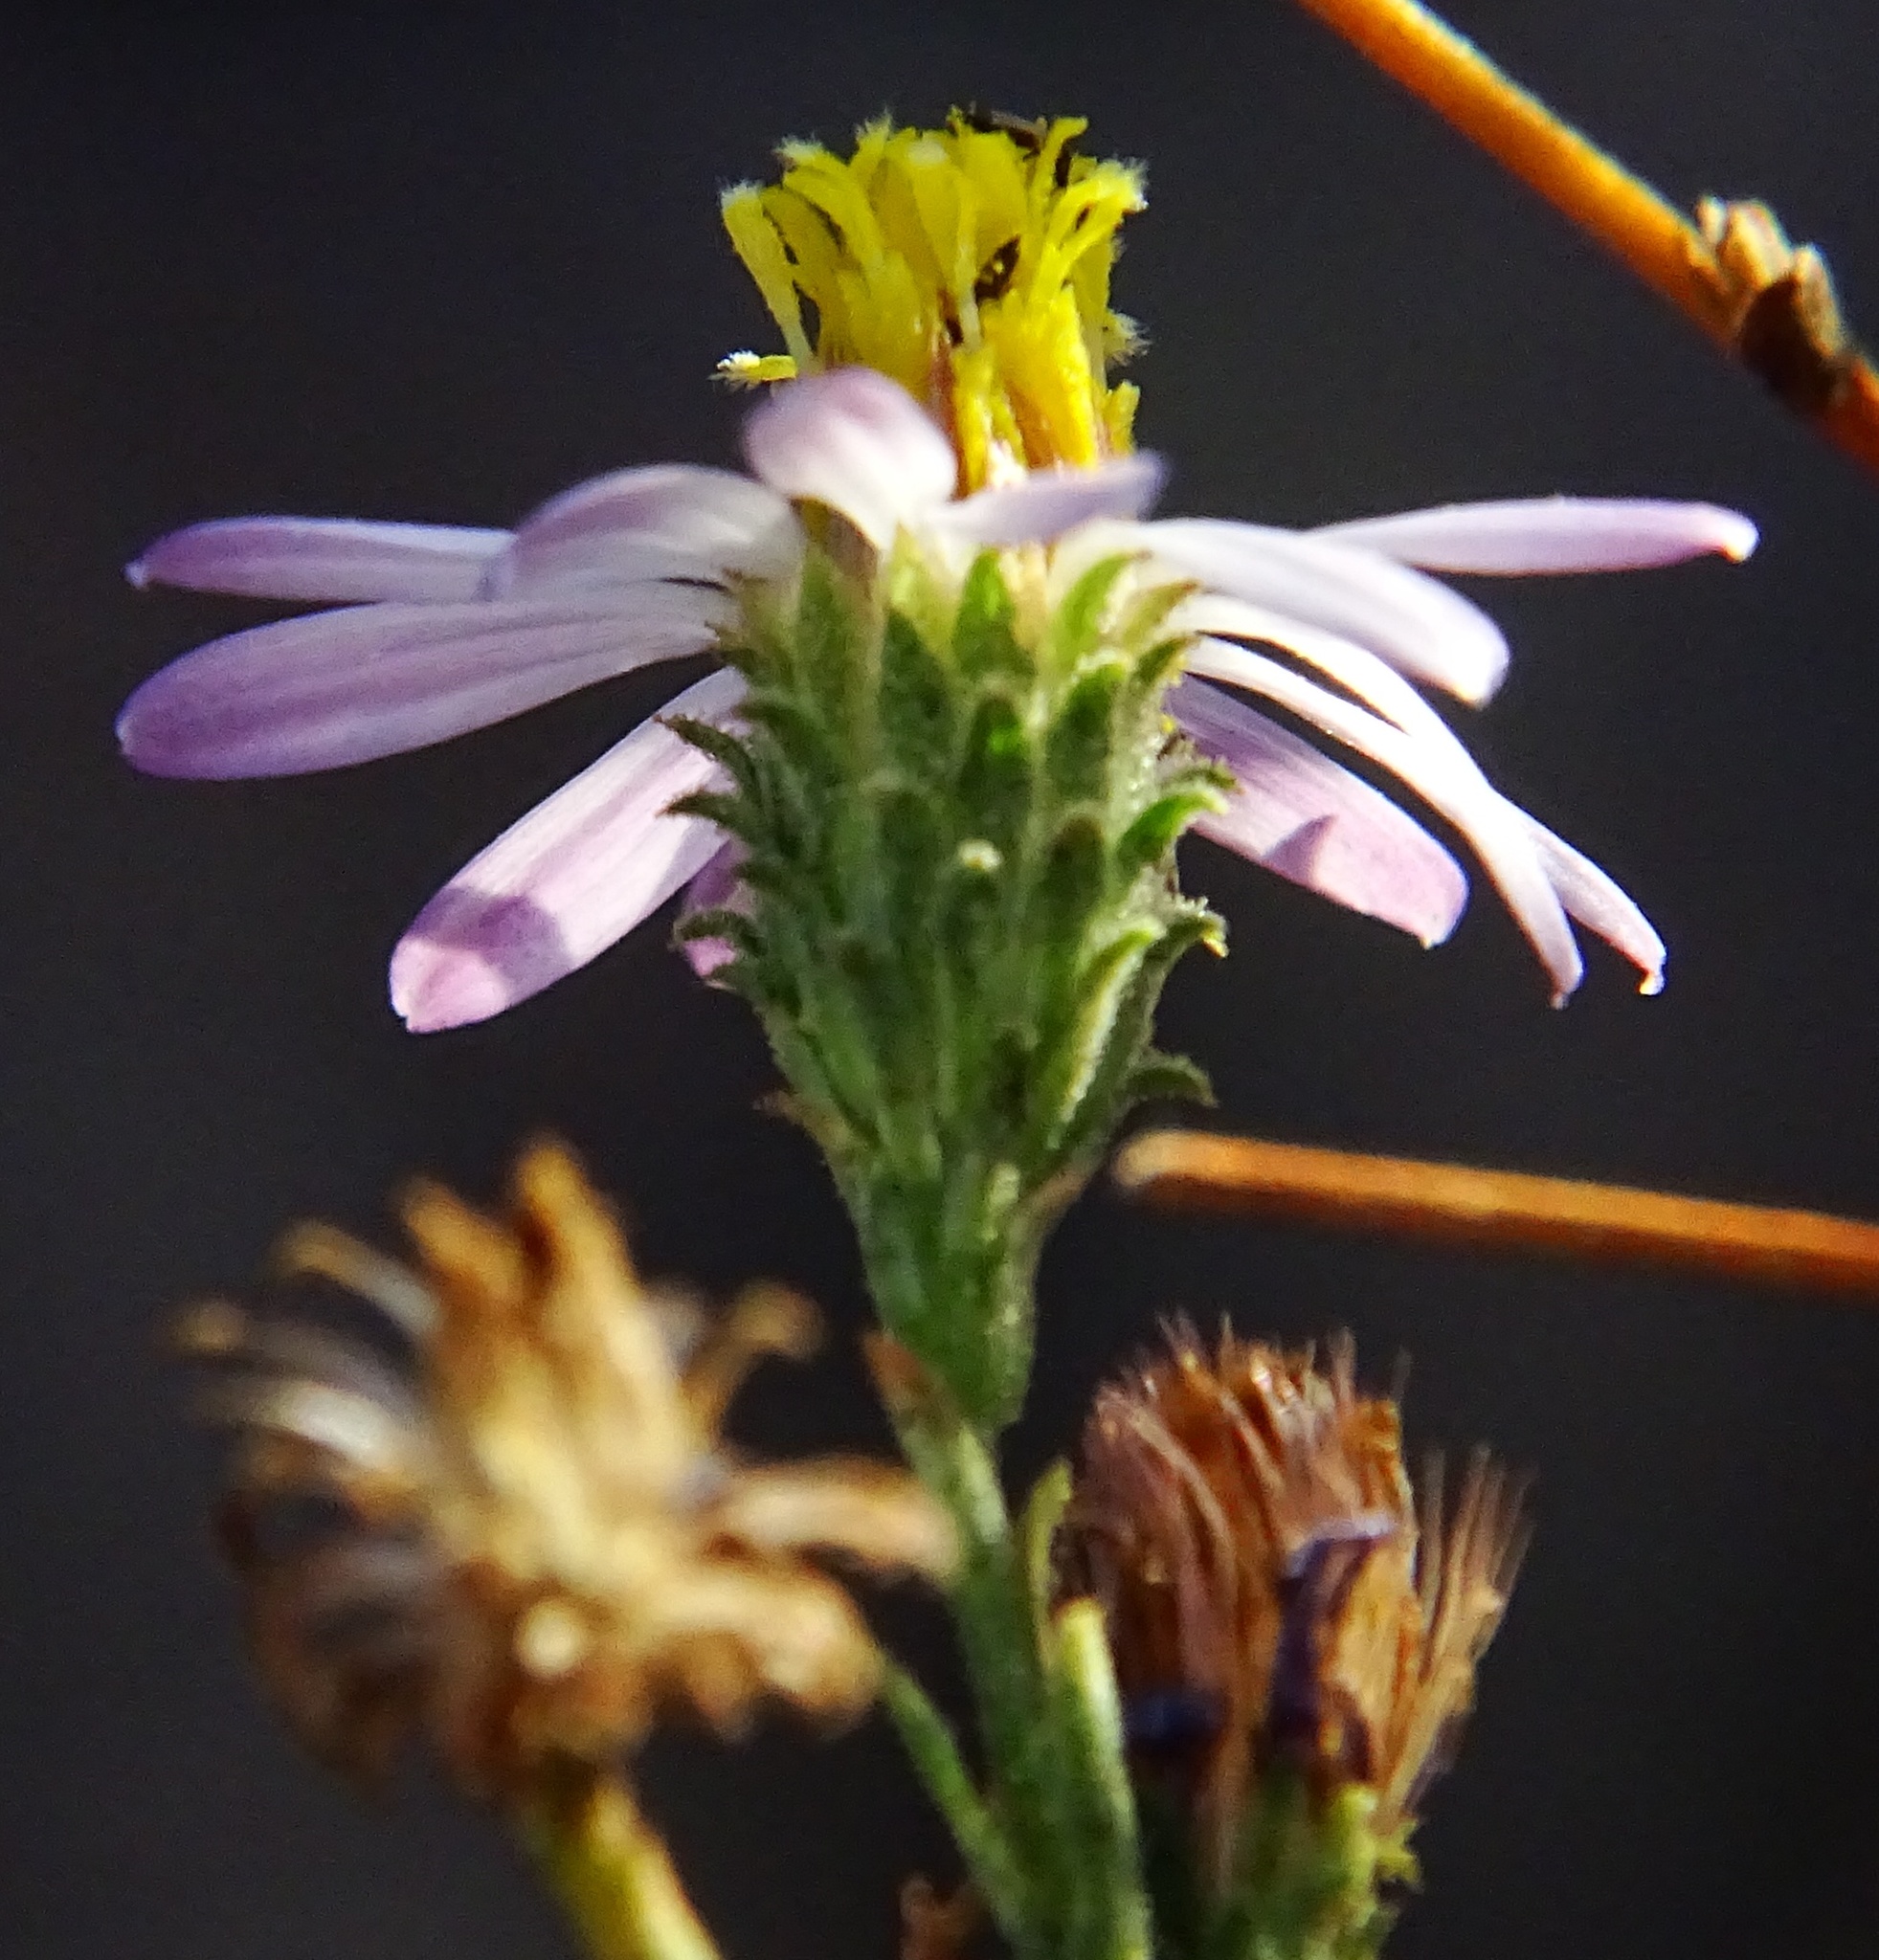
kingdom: Plantae
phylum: Tracheophyta
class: Magnoliopsida
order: Asterales
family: Asteraceae
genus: Corethrogyne
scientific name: Corethrogyne filaginifolia
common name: Sand-aster
